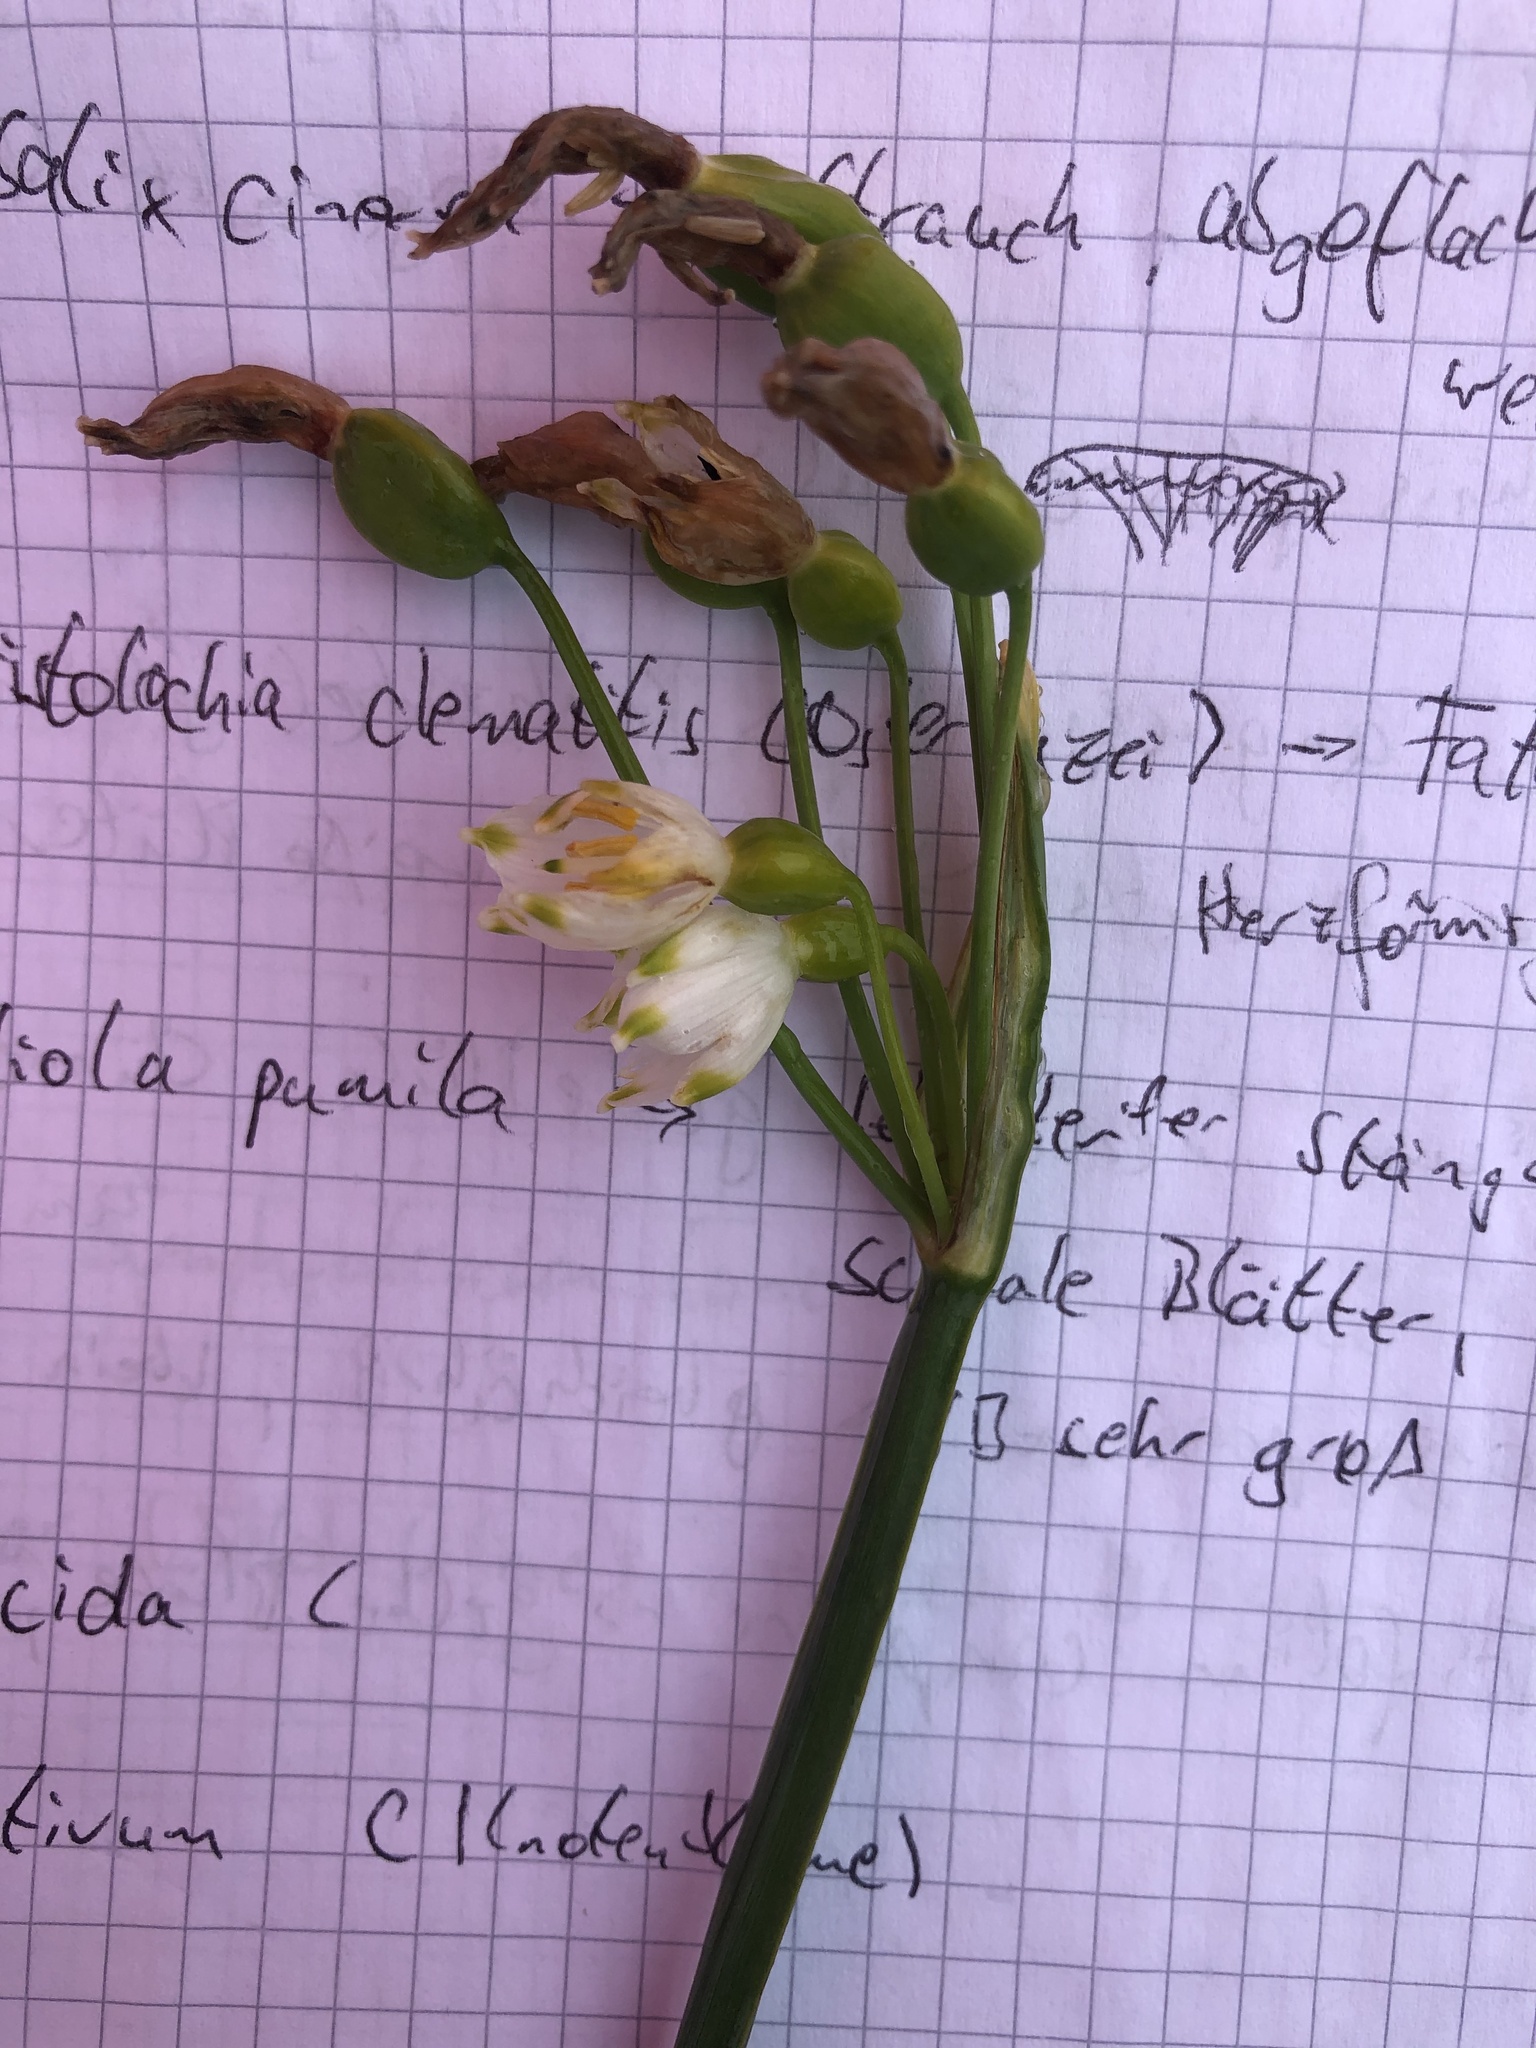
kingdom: Plantae
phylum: Tracheophyta
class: Liliopsida
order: Asparagales
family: Amaryllidaceae
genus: Leucojum
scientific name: Leucojum aestivum
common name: Summer snowflake
